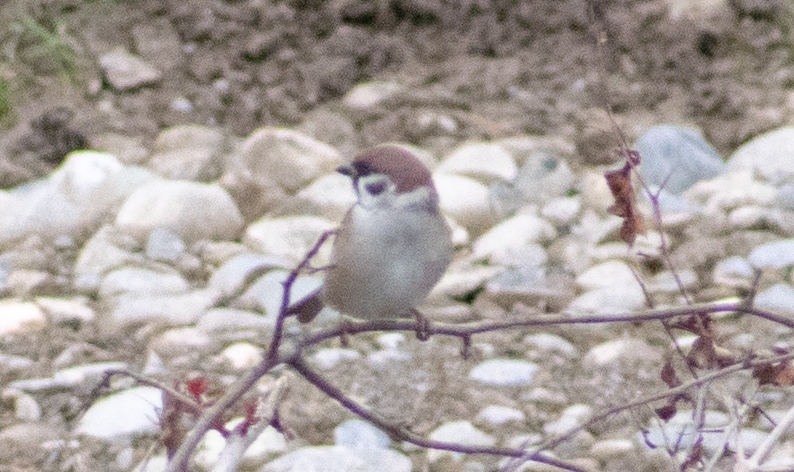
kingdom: Animalia
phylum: Chordata
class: Aves
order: Passeriformes
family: Passeridae
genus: Passer
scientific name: Passer montanus
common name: Eurasian tree sparrow
